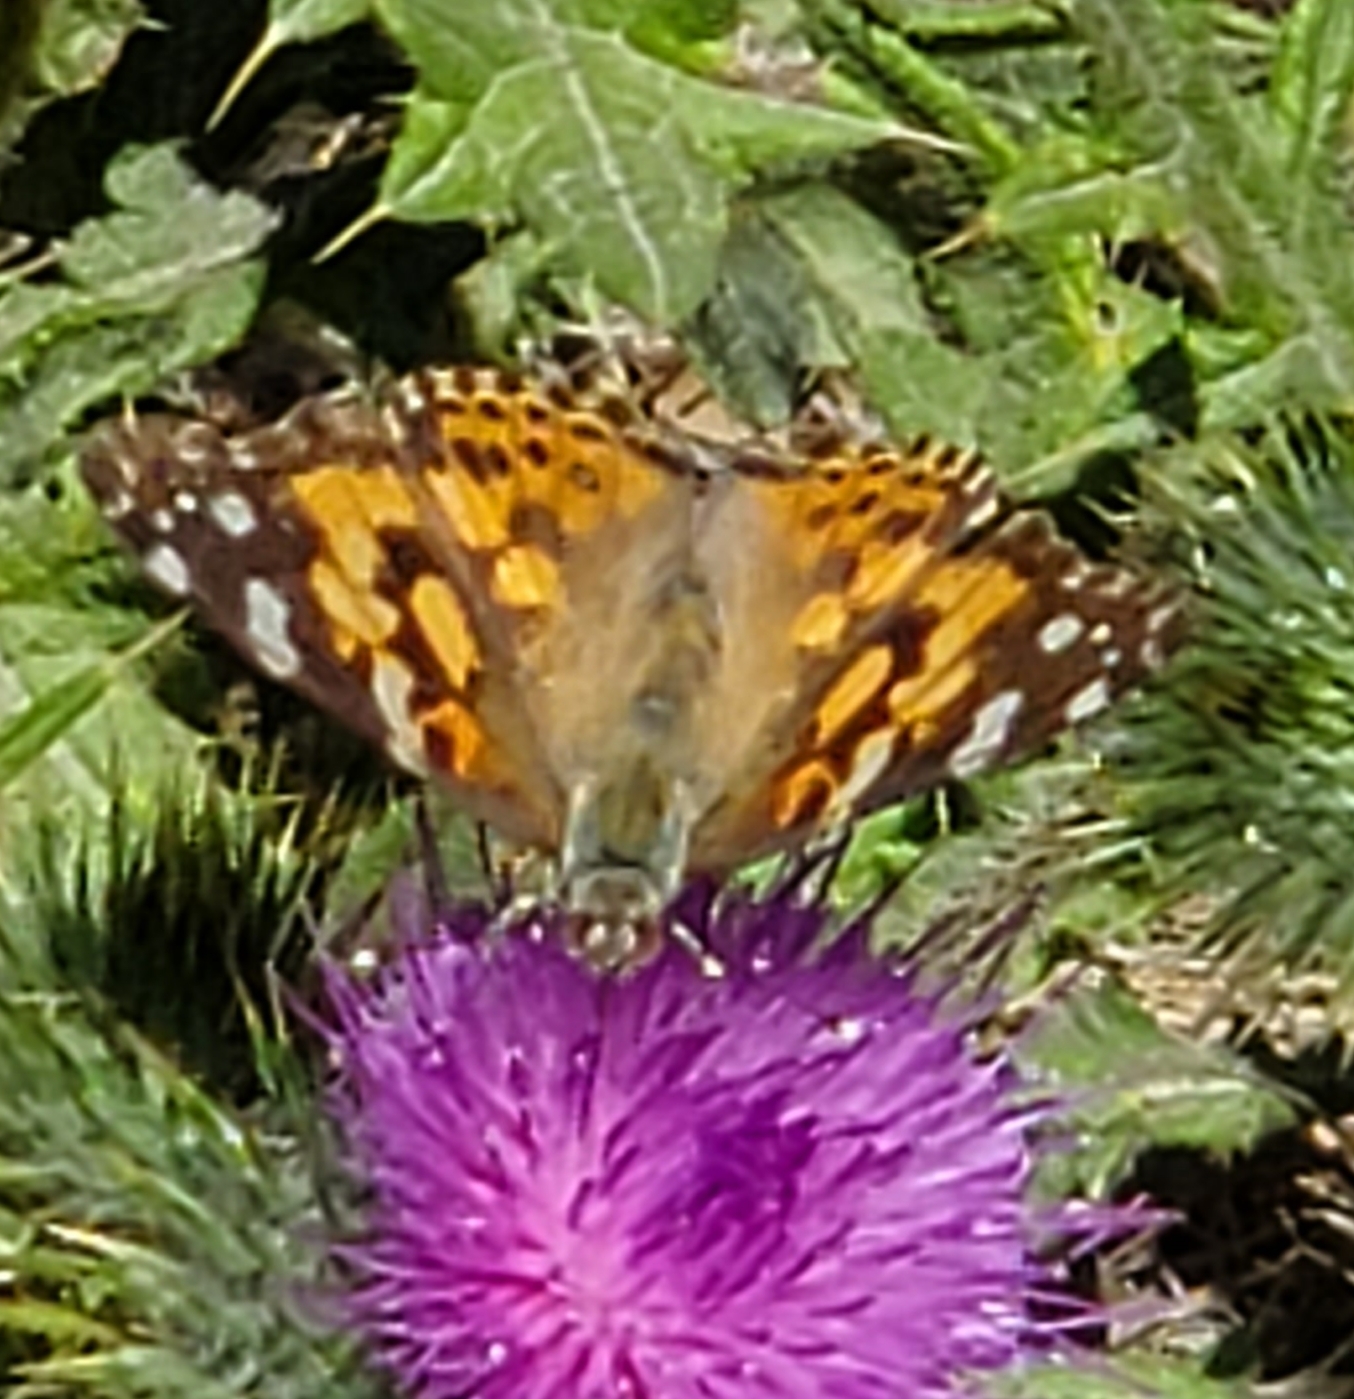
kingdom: Animalia
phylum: Arthropoda
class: Insecta
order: Lepidoptera
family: Nymphalidae
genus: Vanessa
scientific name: Vanessa cardui
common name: Painted lady
